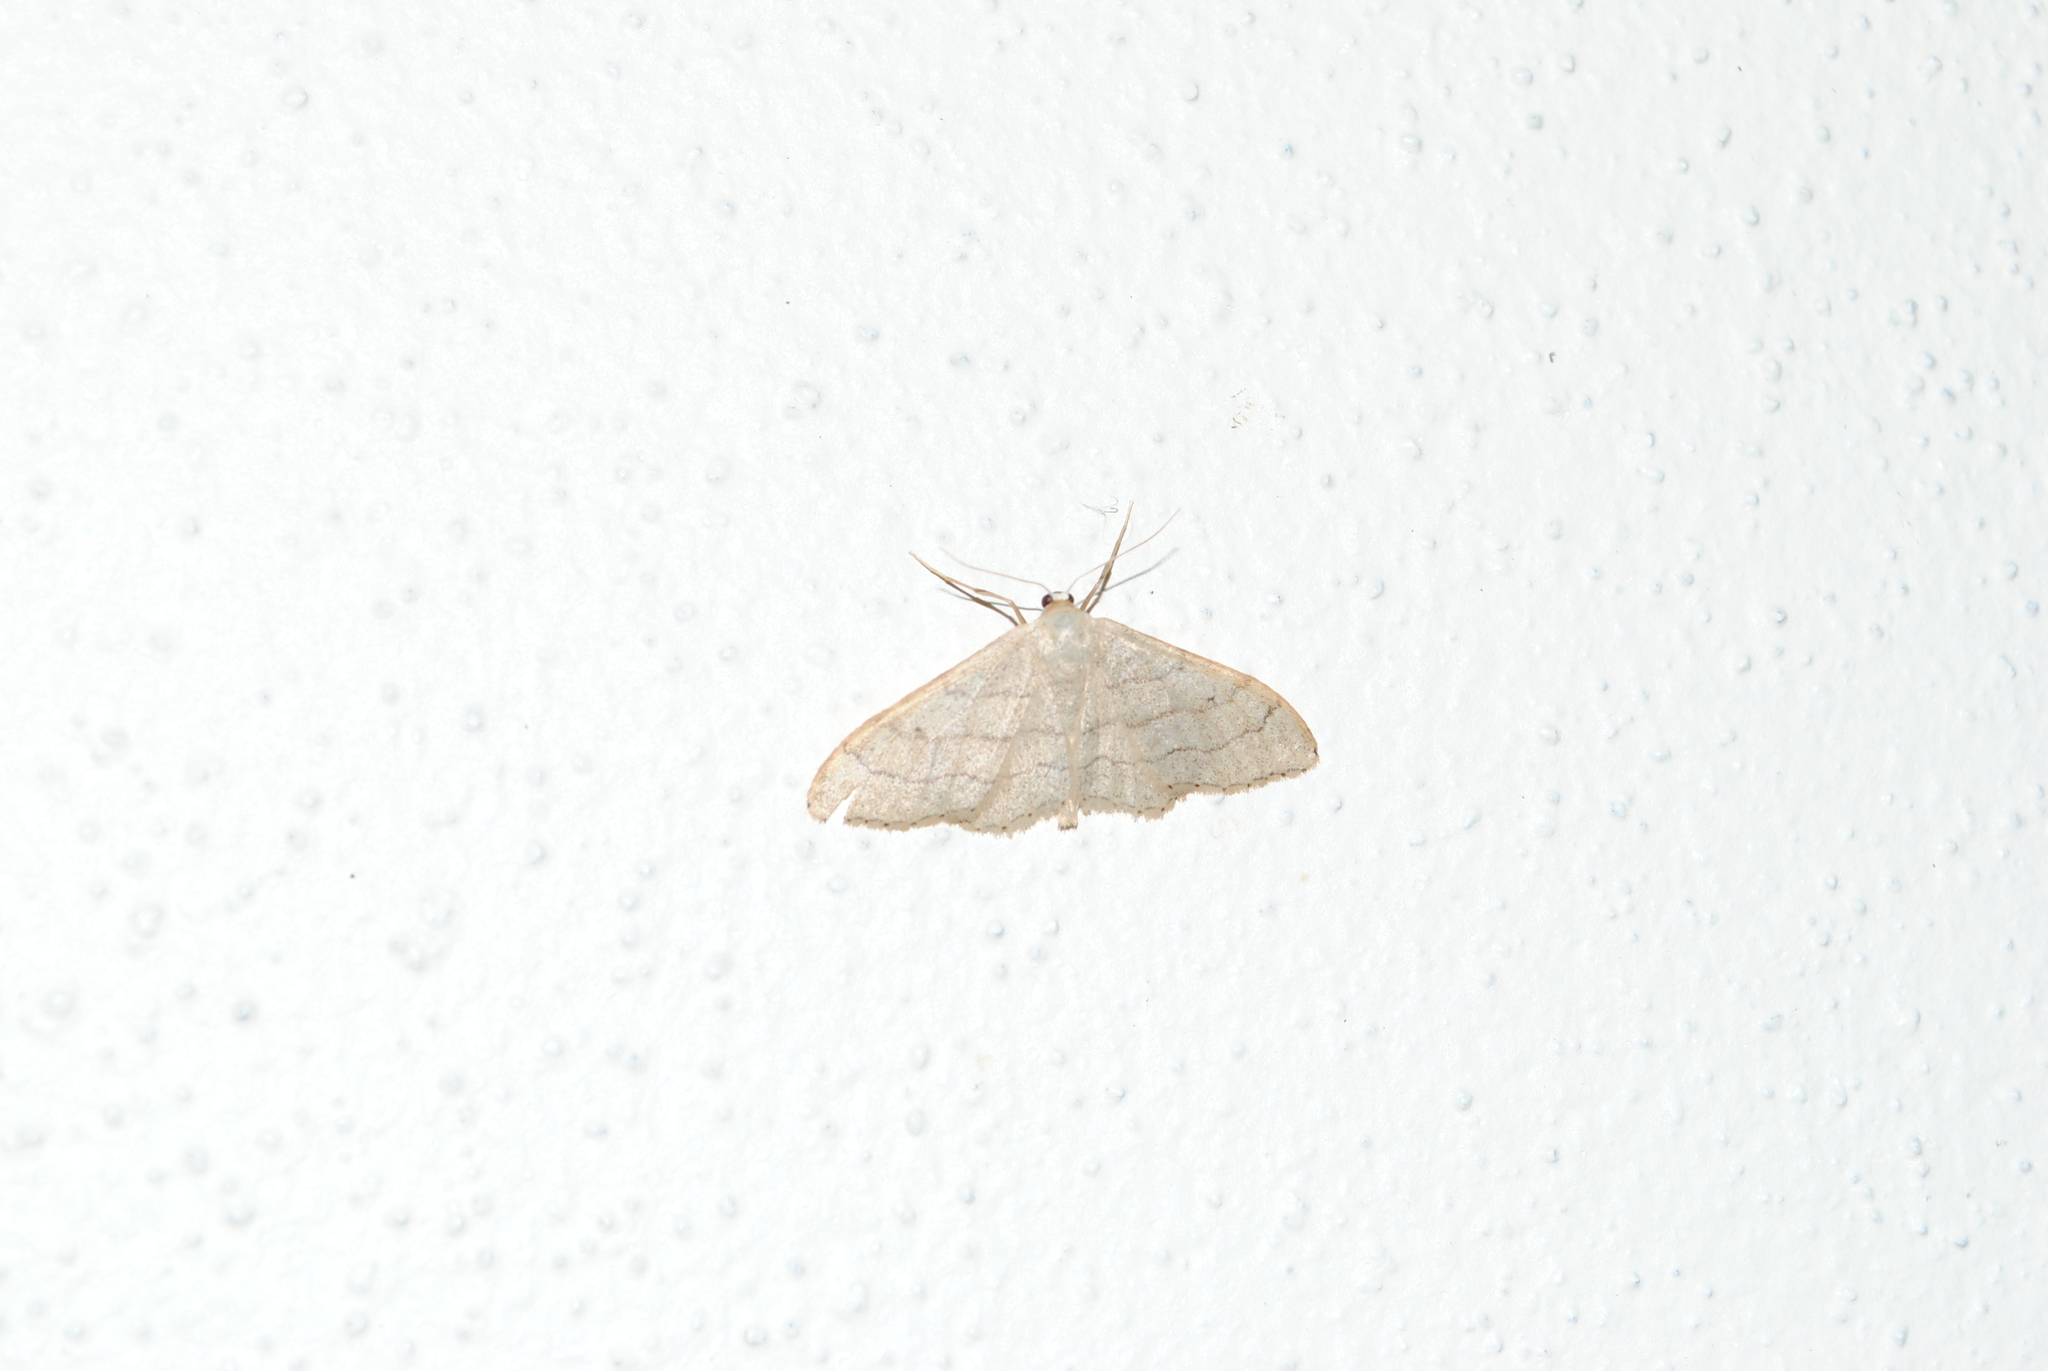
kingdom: Animalia
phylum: Arthropoda
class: Insecta
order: Lepidoptera
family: Geometridae
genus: Idaea
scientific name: Idaea aversata
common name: Riband wave
